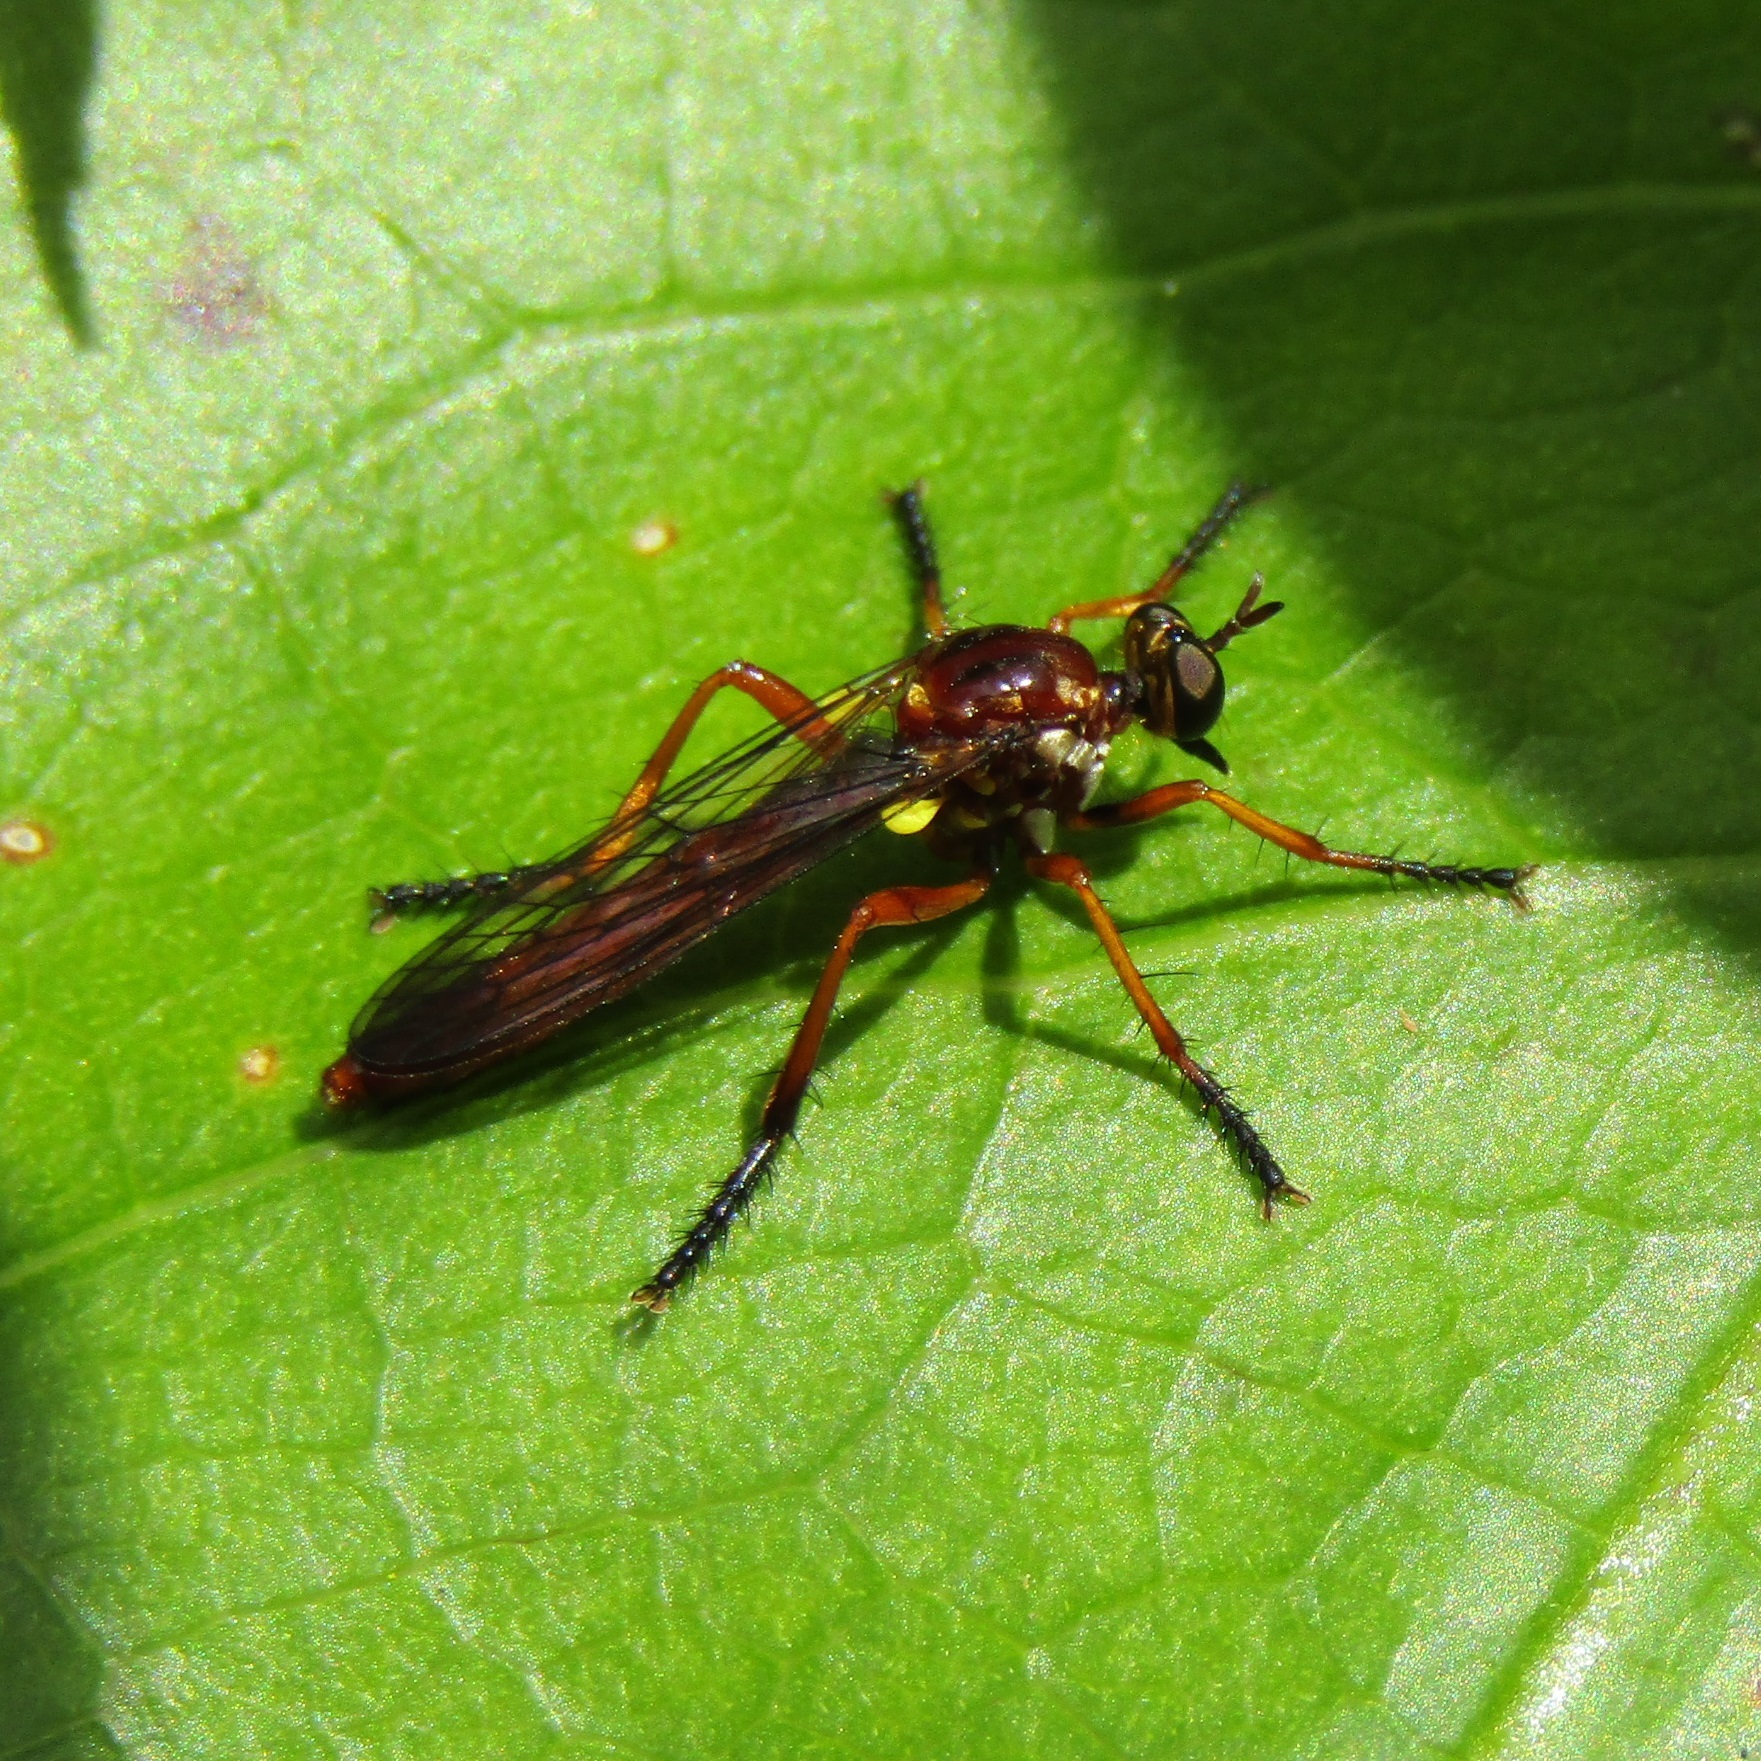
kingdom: Animalia
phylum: Arthropoda
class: Insecta
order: Diptera
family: Asilidae
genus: Saropogon
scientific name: Saropogon antipodus
